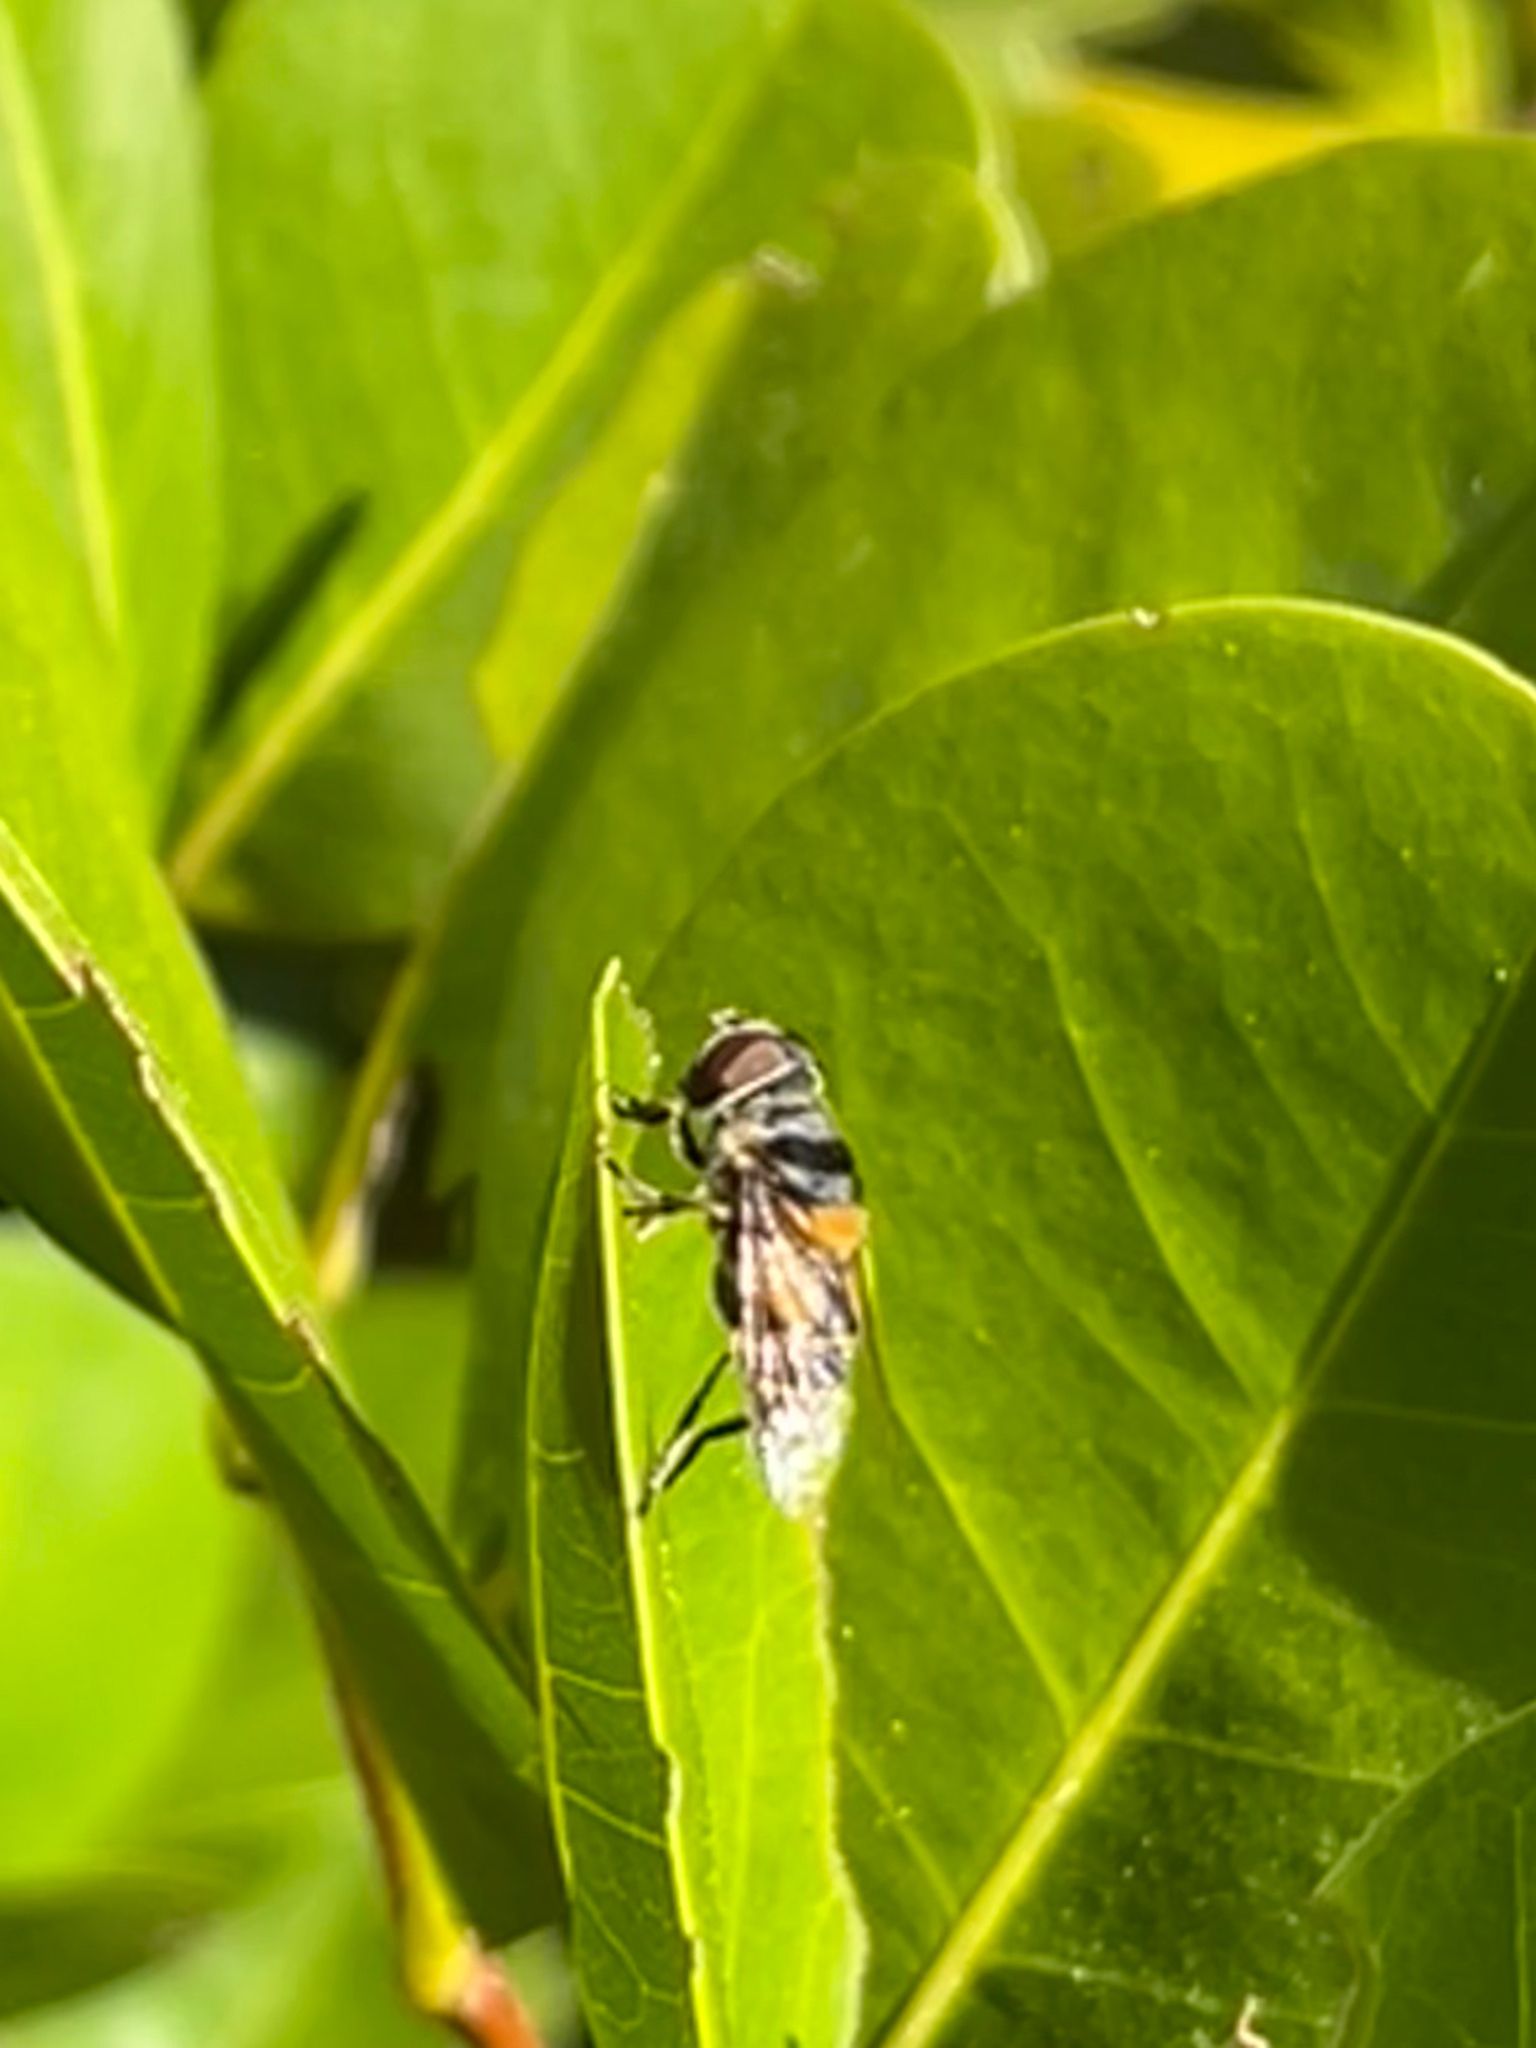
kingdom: Animalia
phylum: Arthropoda
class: Insecta
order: Diptera
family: Syrphidae
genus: Palpada
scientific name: Palpada agrorum
